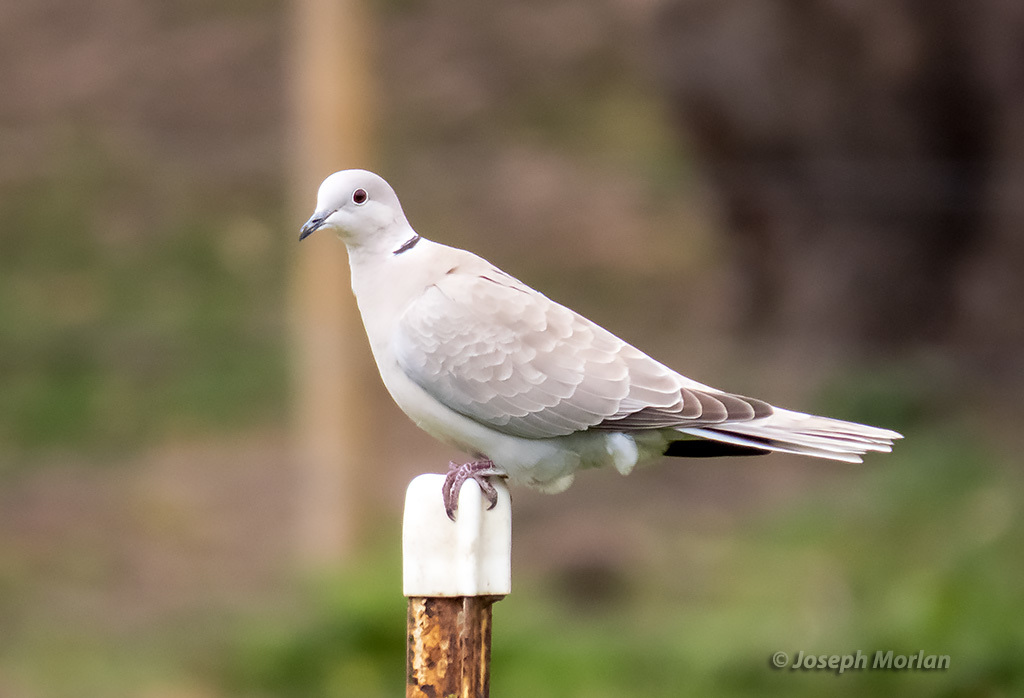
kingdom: Animalia
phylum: Chordata
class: Aves
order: Columbiformes
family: Columbidae
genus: Streptopelia
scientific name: Streptopelia decaocto
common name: Eurasian collared dove
